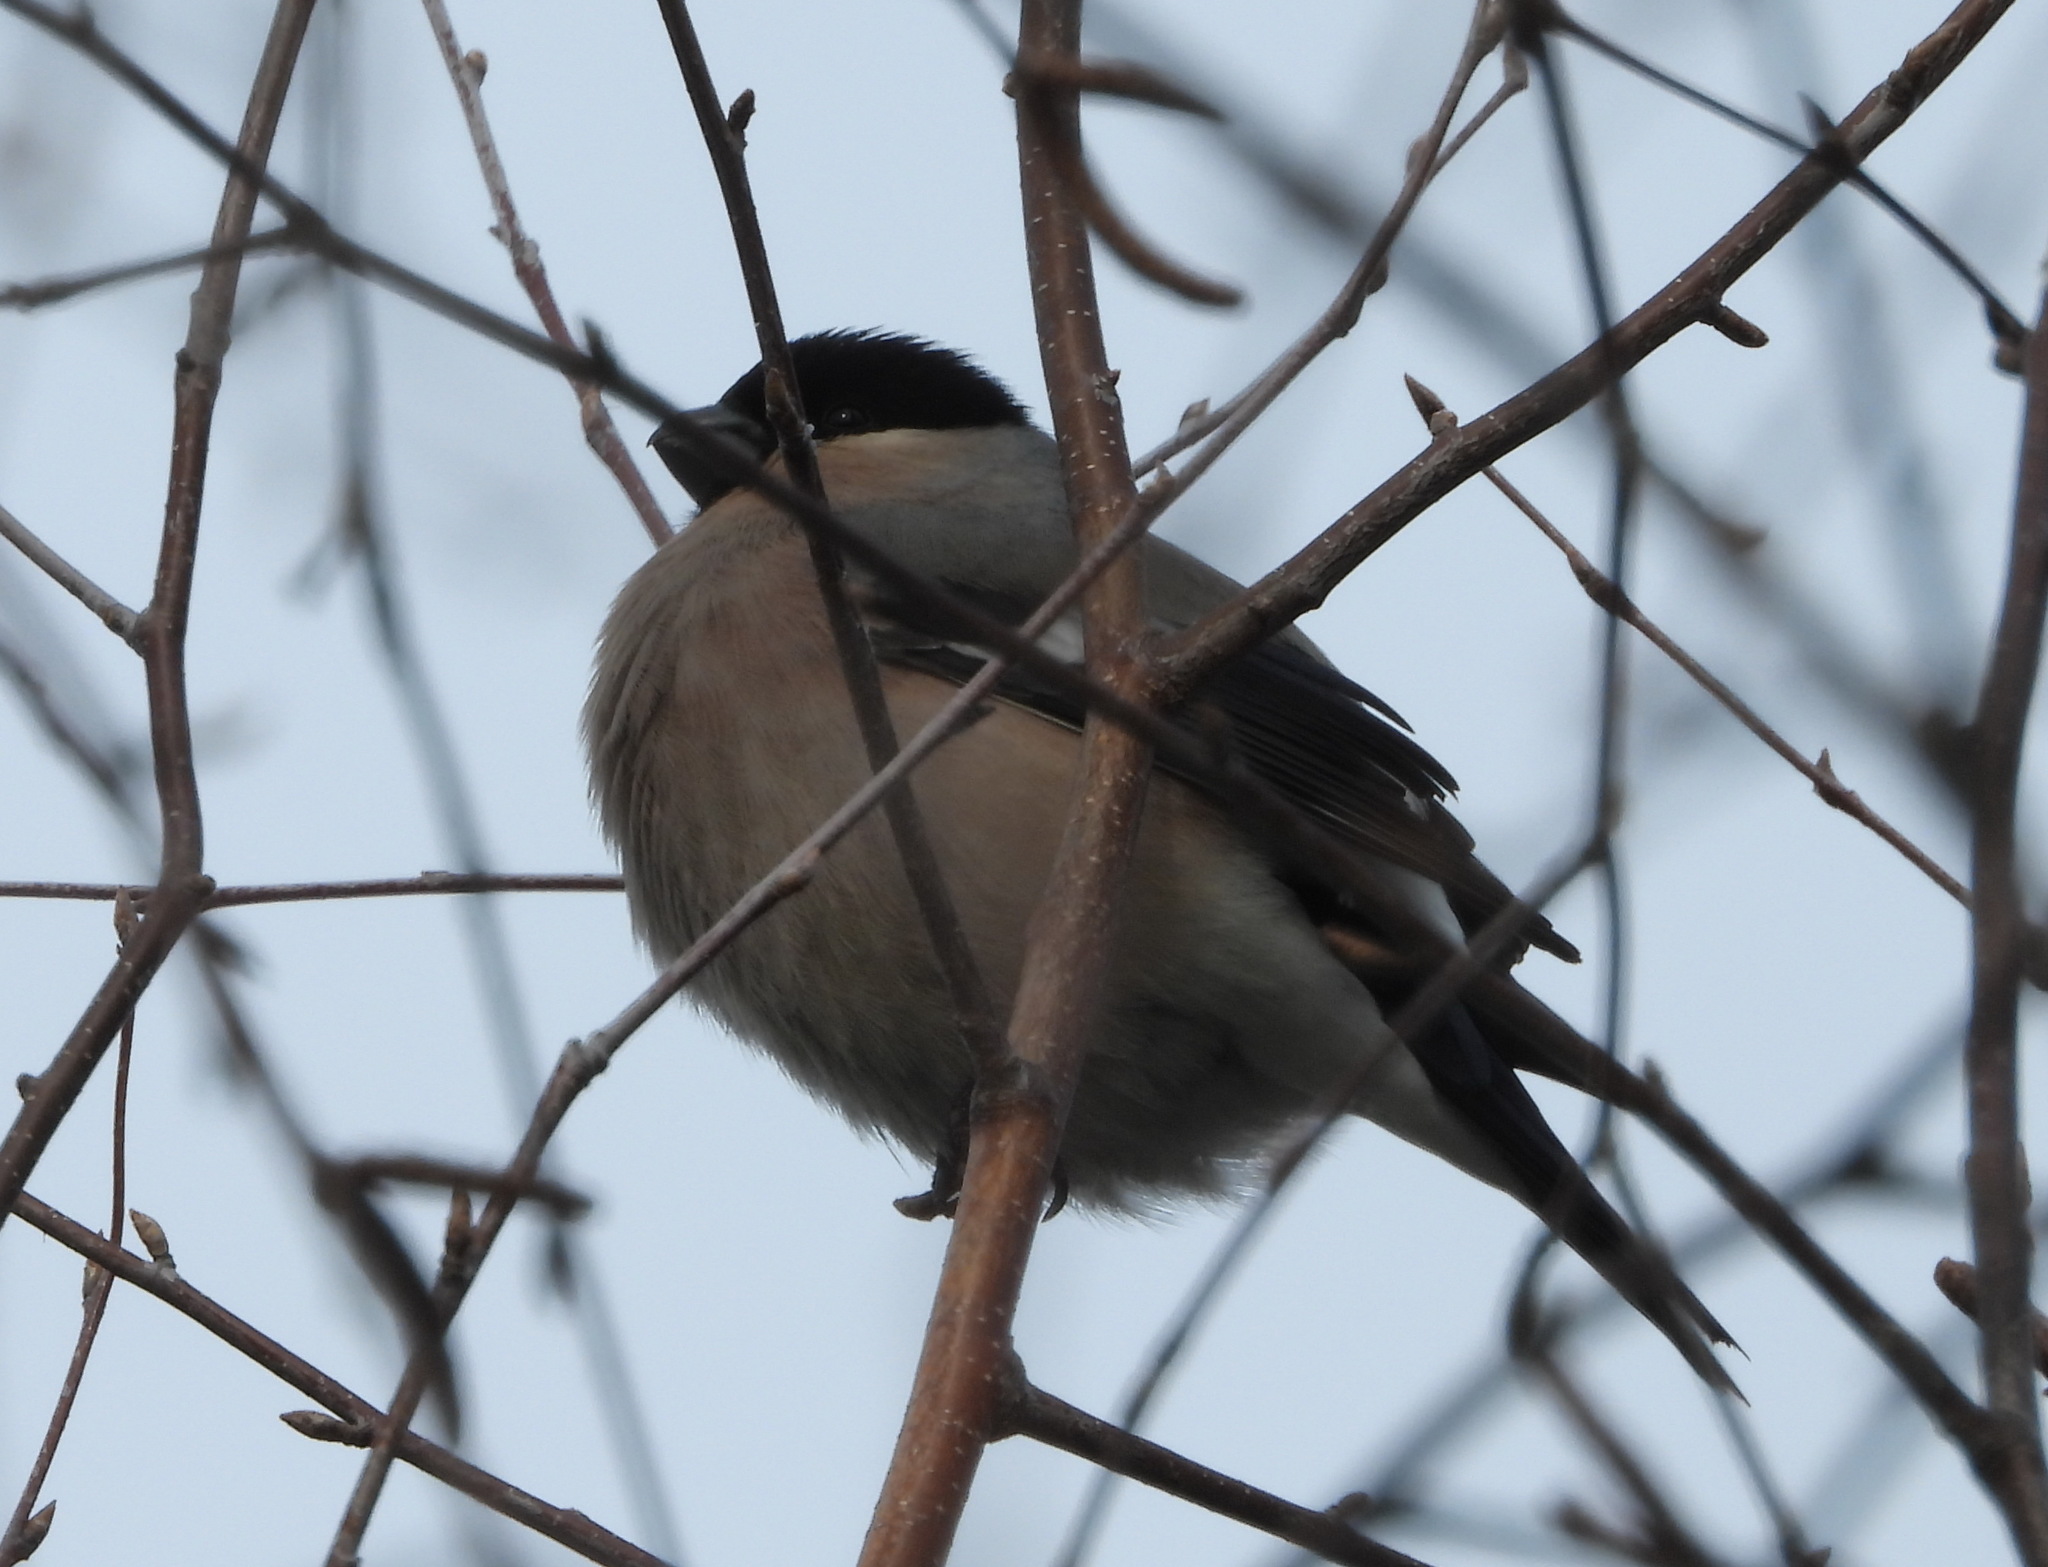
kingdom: Animalia
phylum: Chordata
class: Aves
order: Passeriformes
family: Fringillidae
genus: Pyrrhula
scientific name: Pyrrhula pyrrhula
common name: Eurasian bullfinch
